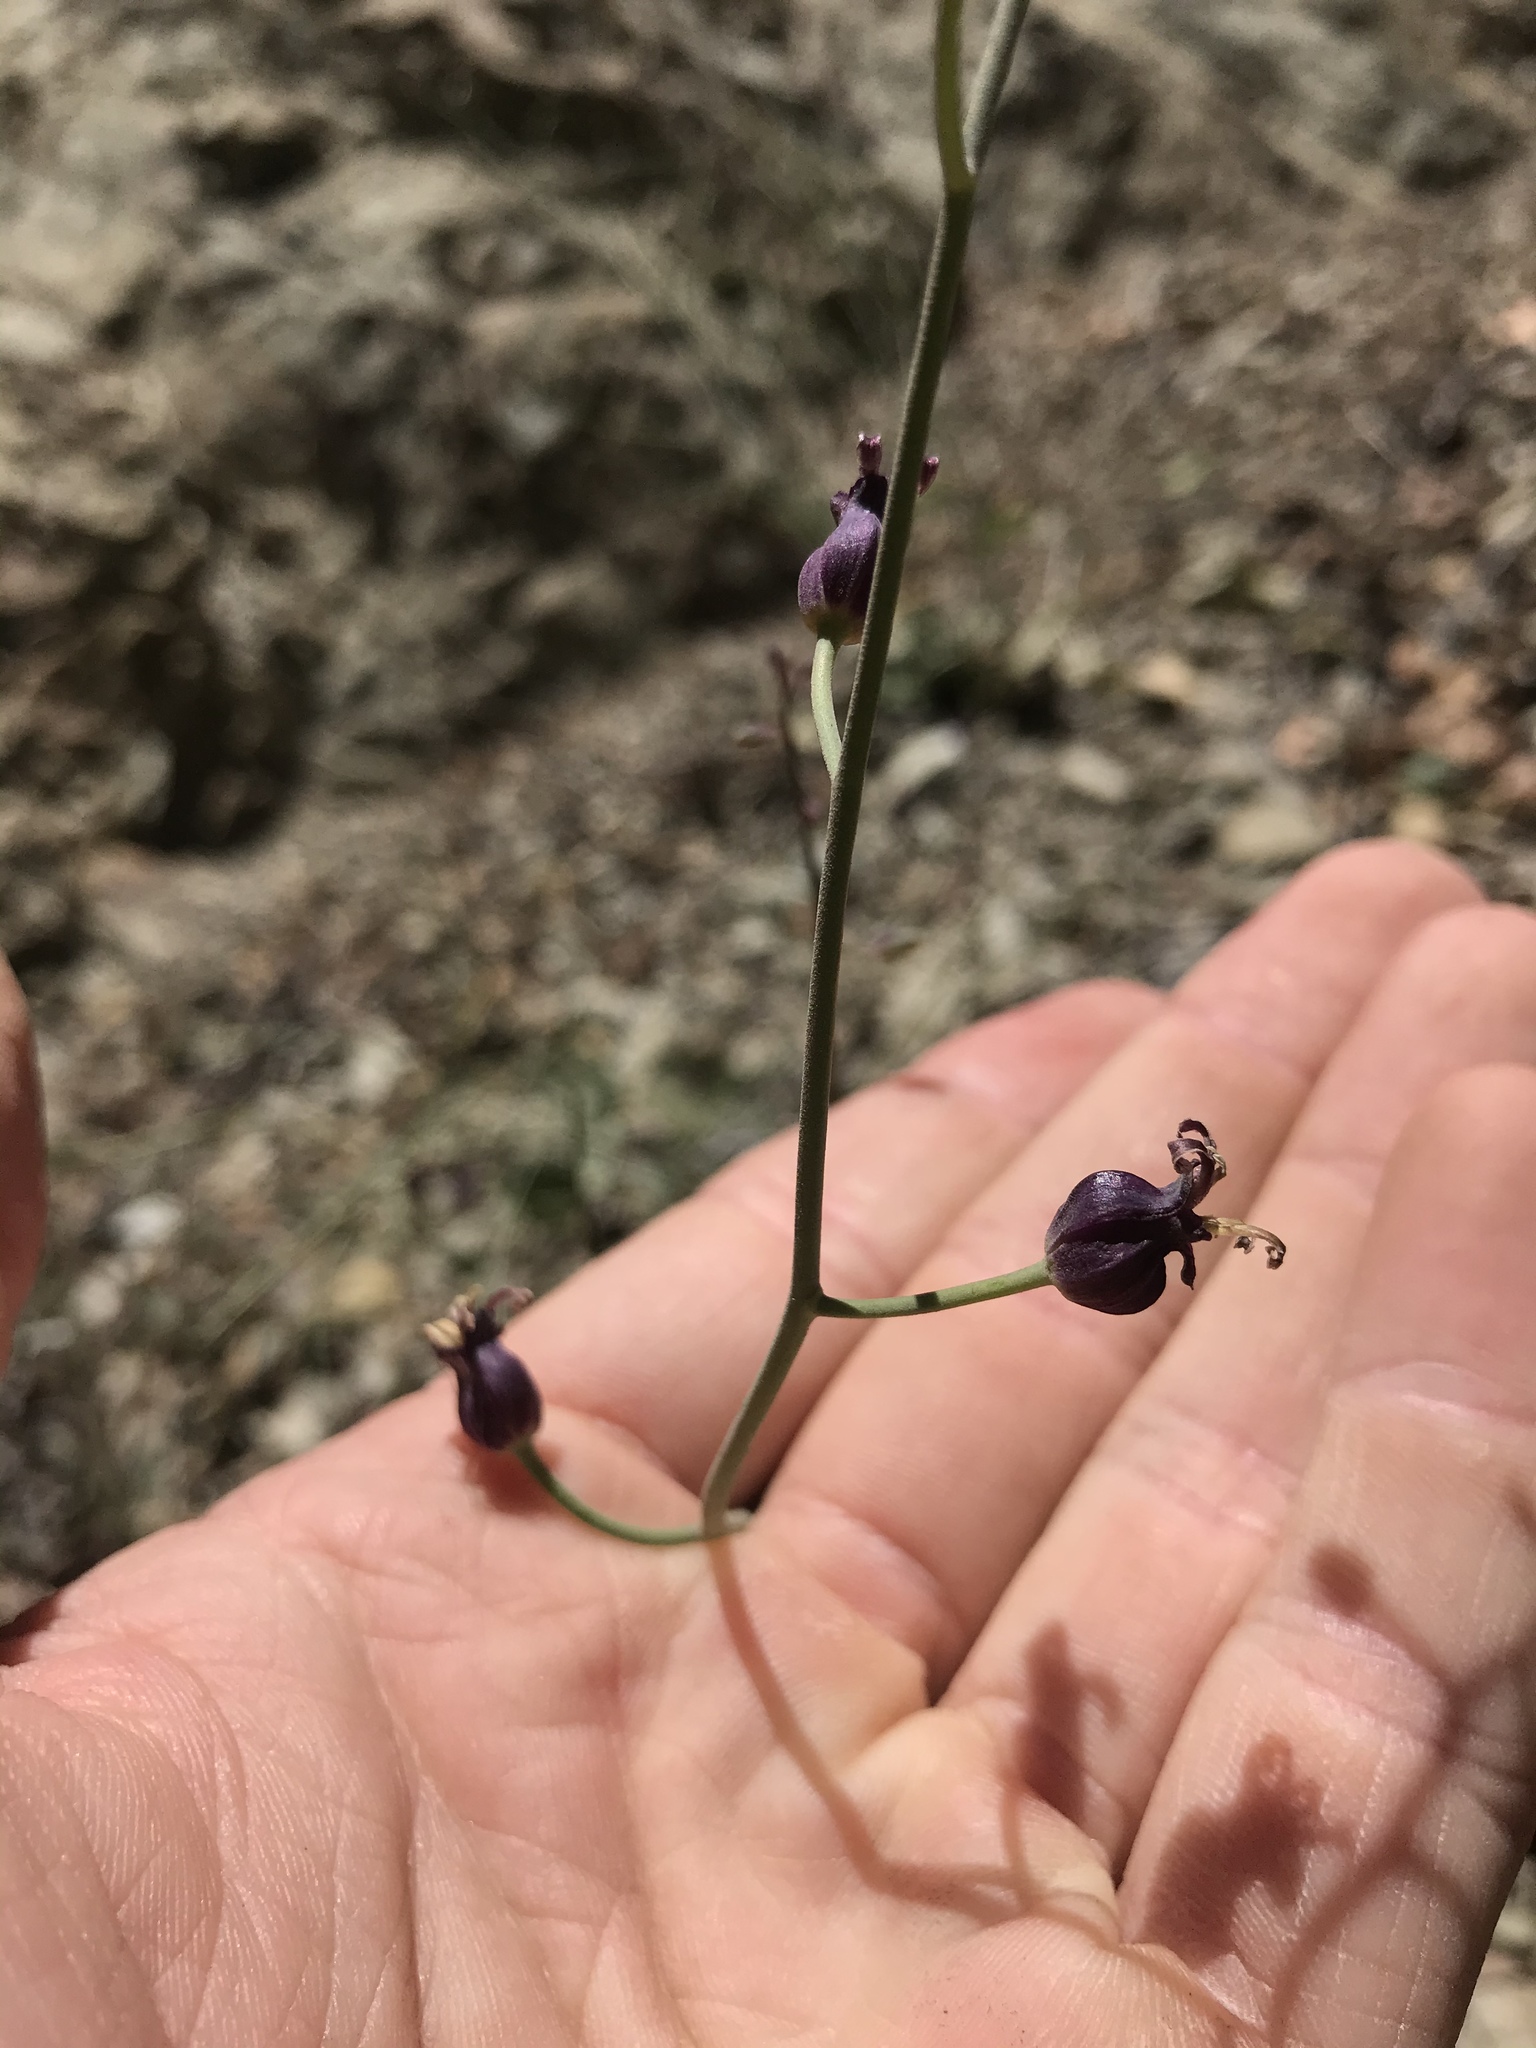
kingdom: Plantae
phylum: Tracheophyta
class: Magnoliopsida
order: Brassicales
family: Brassicaceae
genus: Streptanthus
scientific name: Streptanthus amplexicaulis
